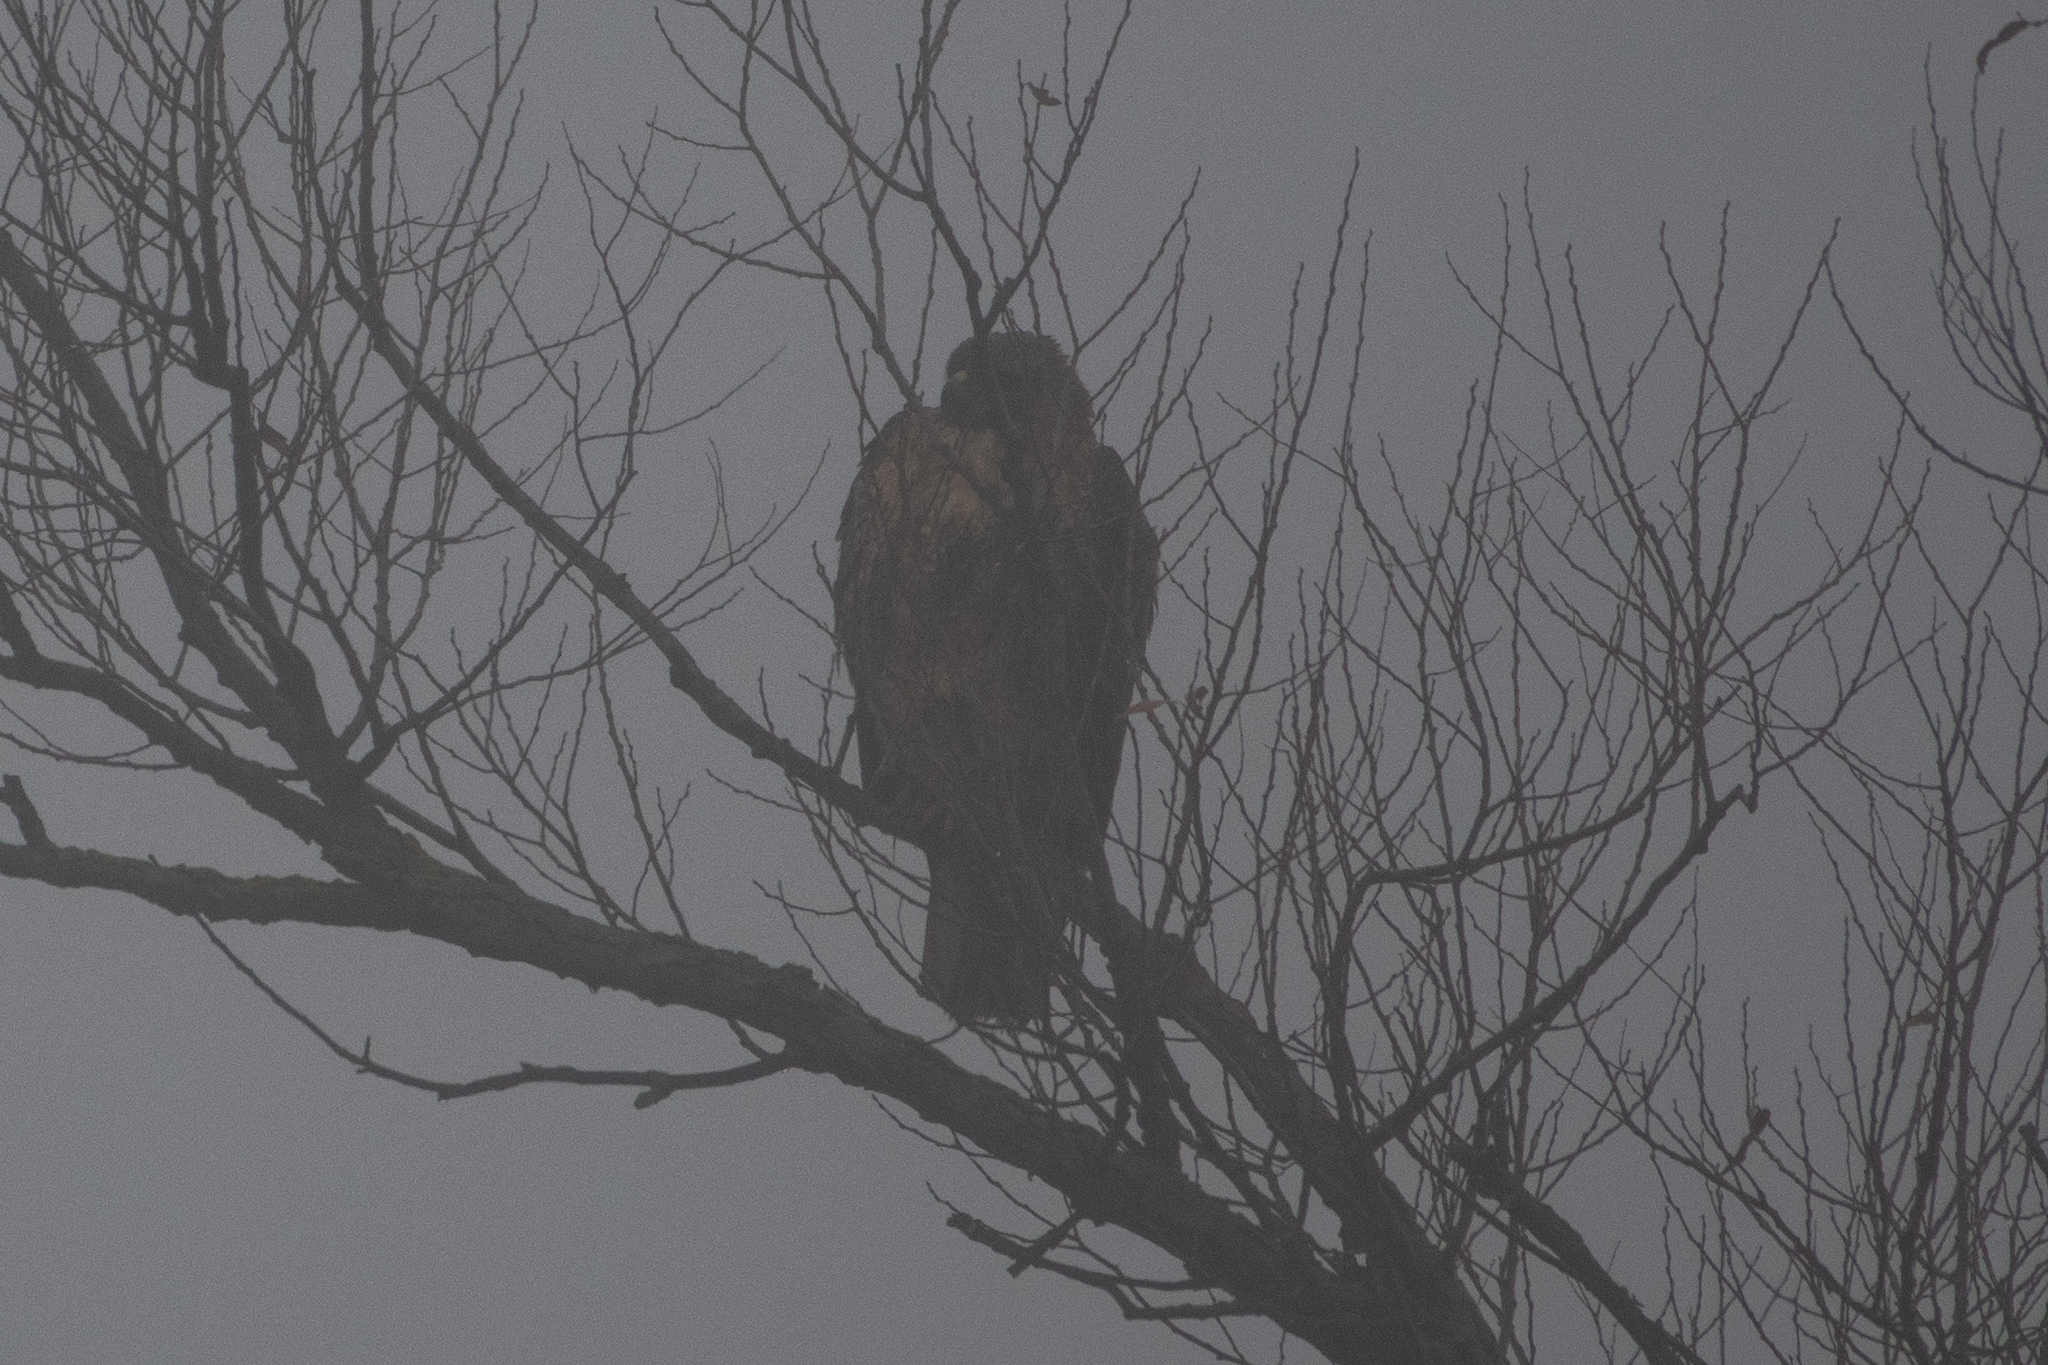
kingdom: Animalia
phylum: Chordata
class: Aves
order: Accipitriformes
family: Accipitridae
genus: Buteo
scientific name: Buteo jamaicensis
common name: Red-tailed hawk
